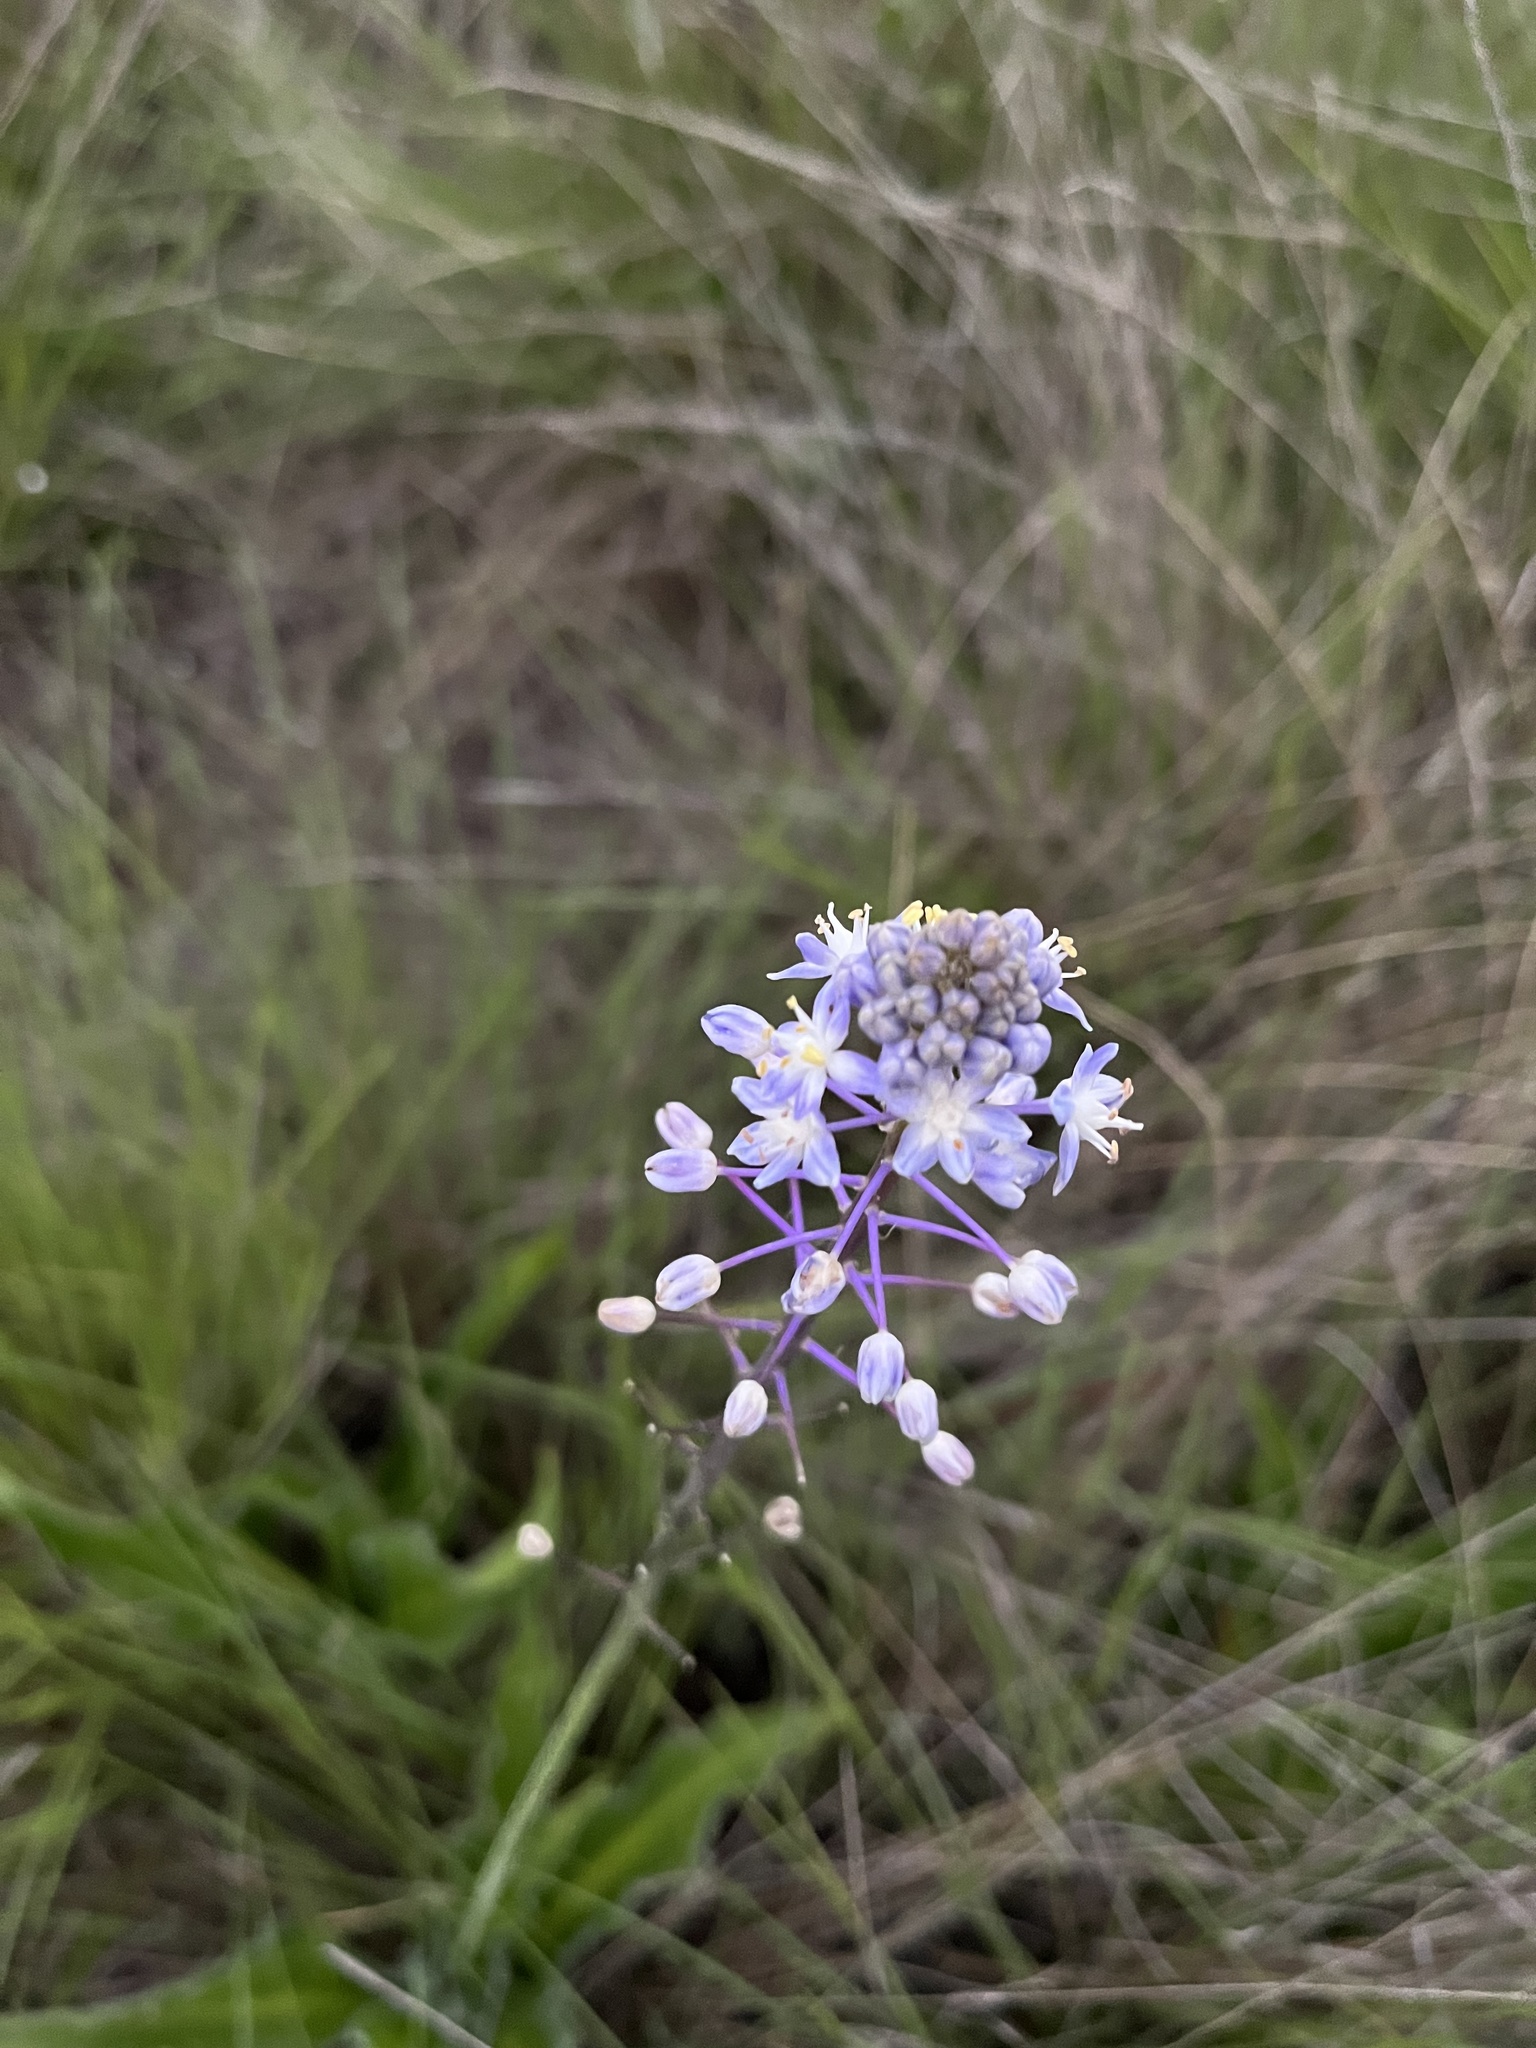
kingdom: Plantae
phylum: Tracheophyta
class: Liliopsida
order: Asparagales
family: Asparagaceae
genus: Merwilla
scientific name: Merwilla plumbea
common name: Blue-squill
